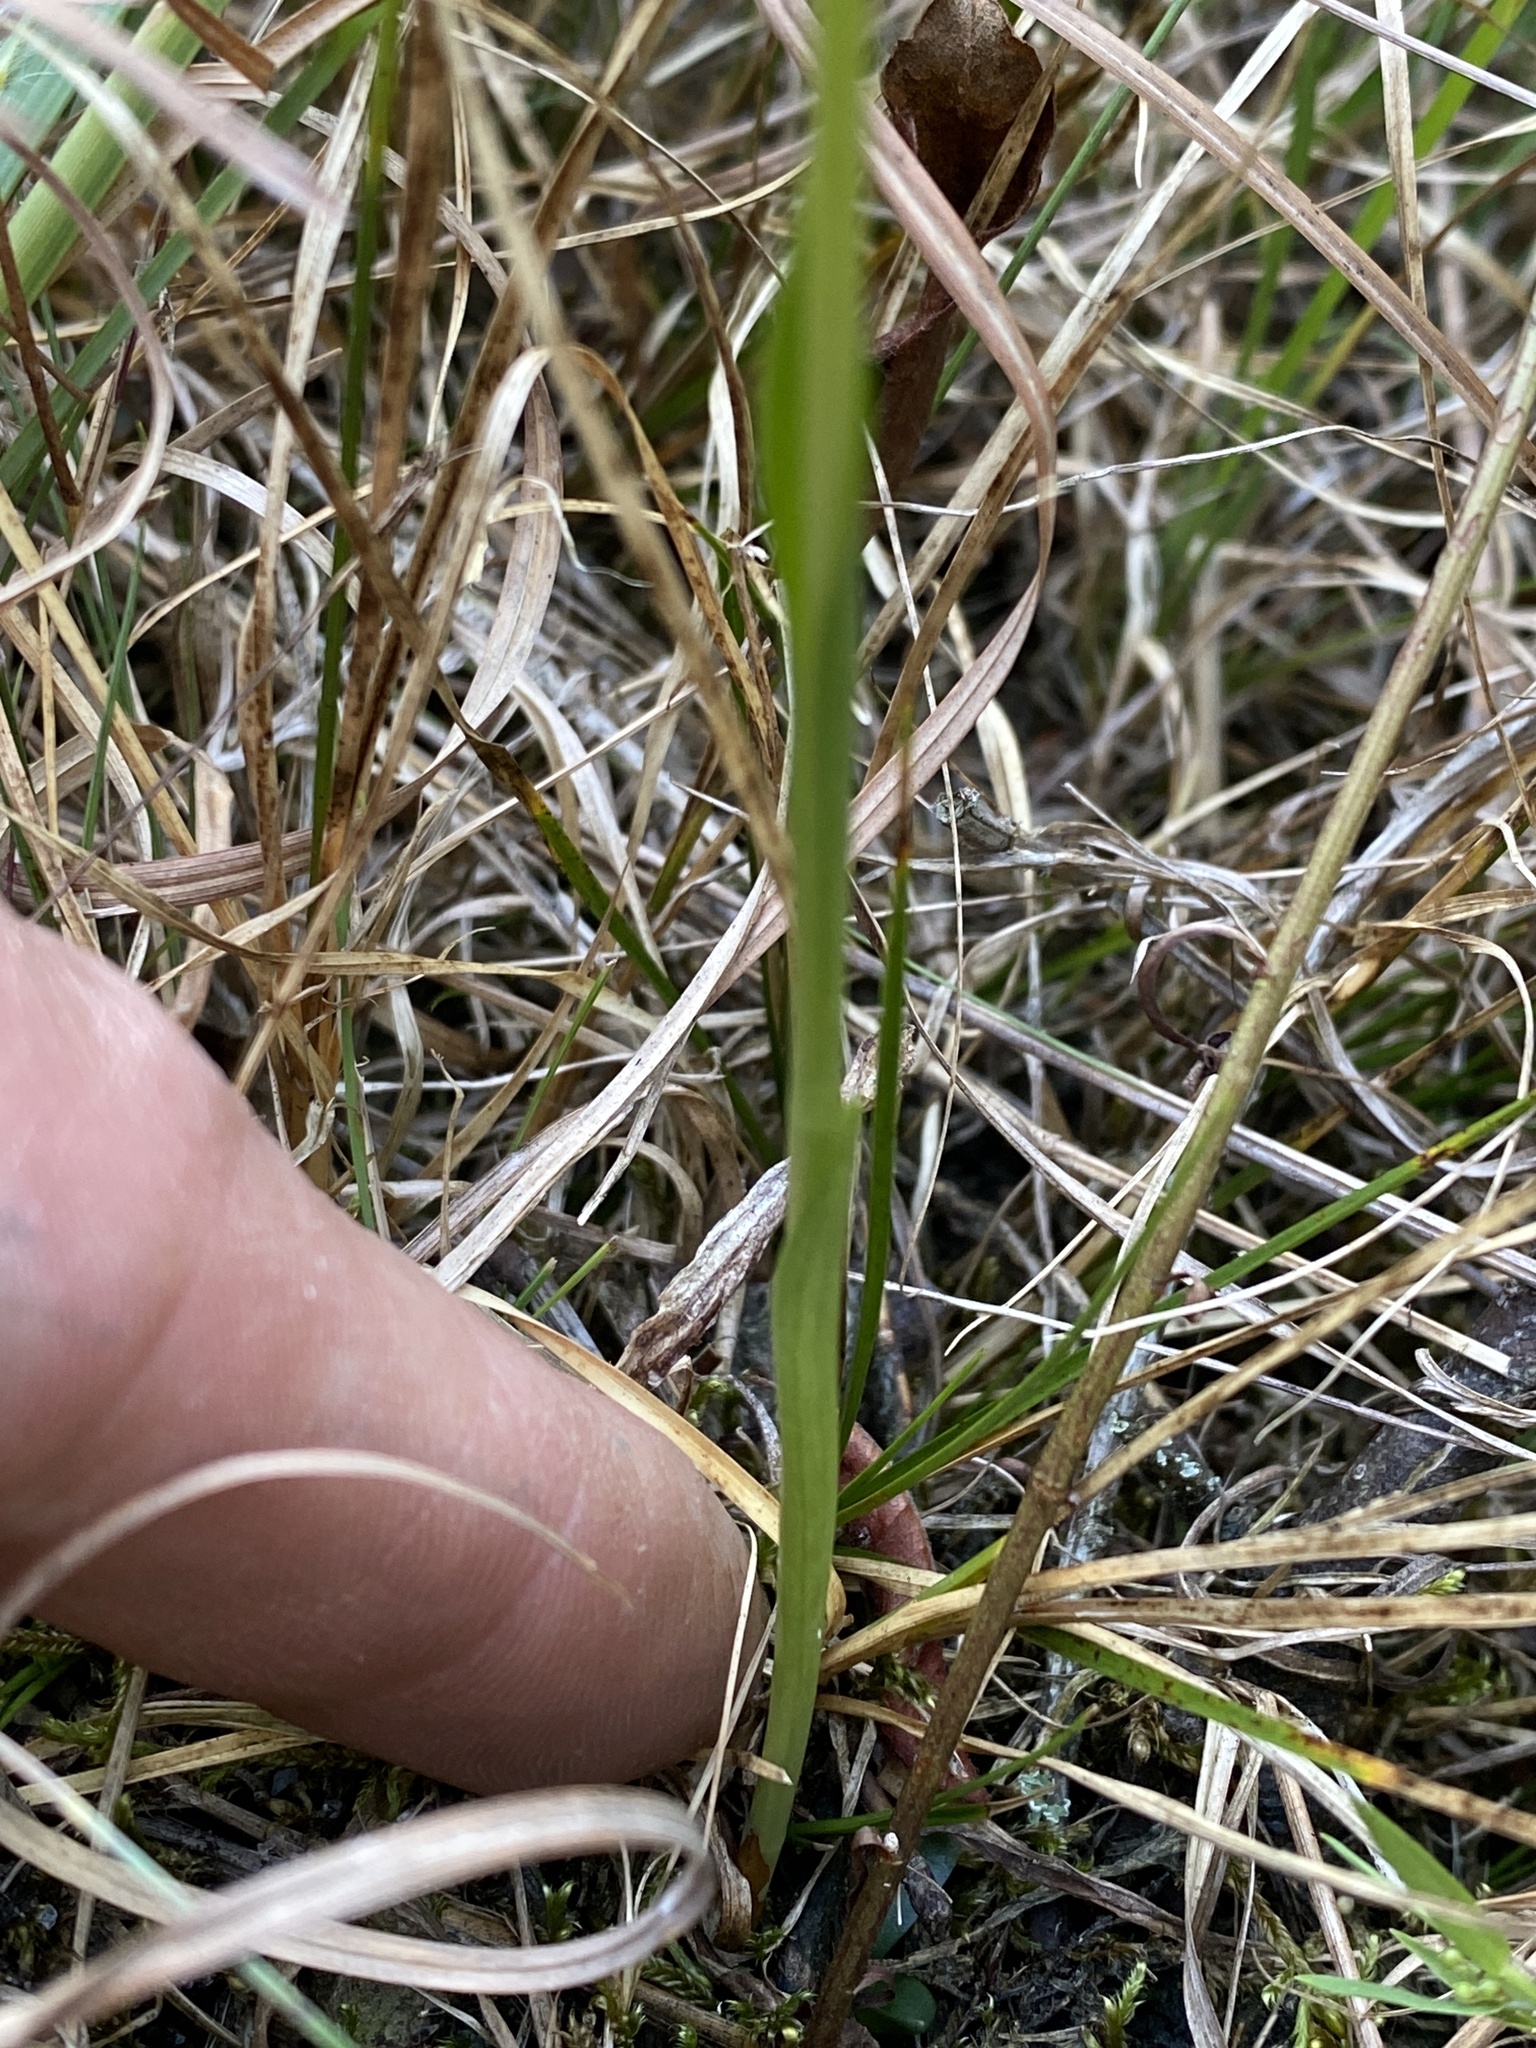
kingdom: Plantae
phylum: Tracheophyta
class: Liliopsida
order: Asparagales
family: Orchidaceae
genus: Spiranthes
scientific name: Spiranthes cernua
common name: Dropping ladies'-tresses
